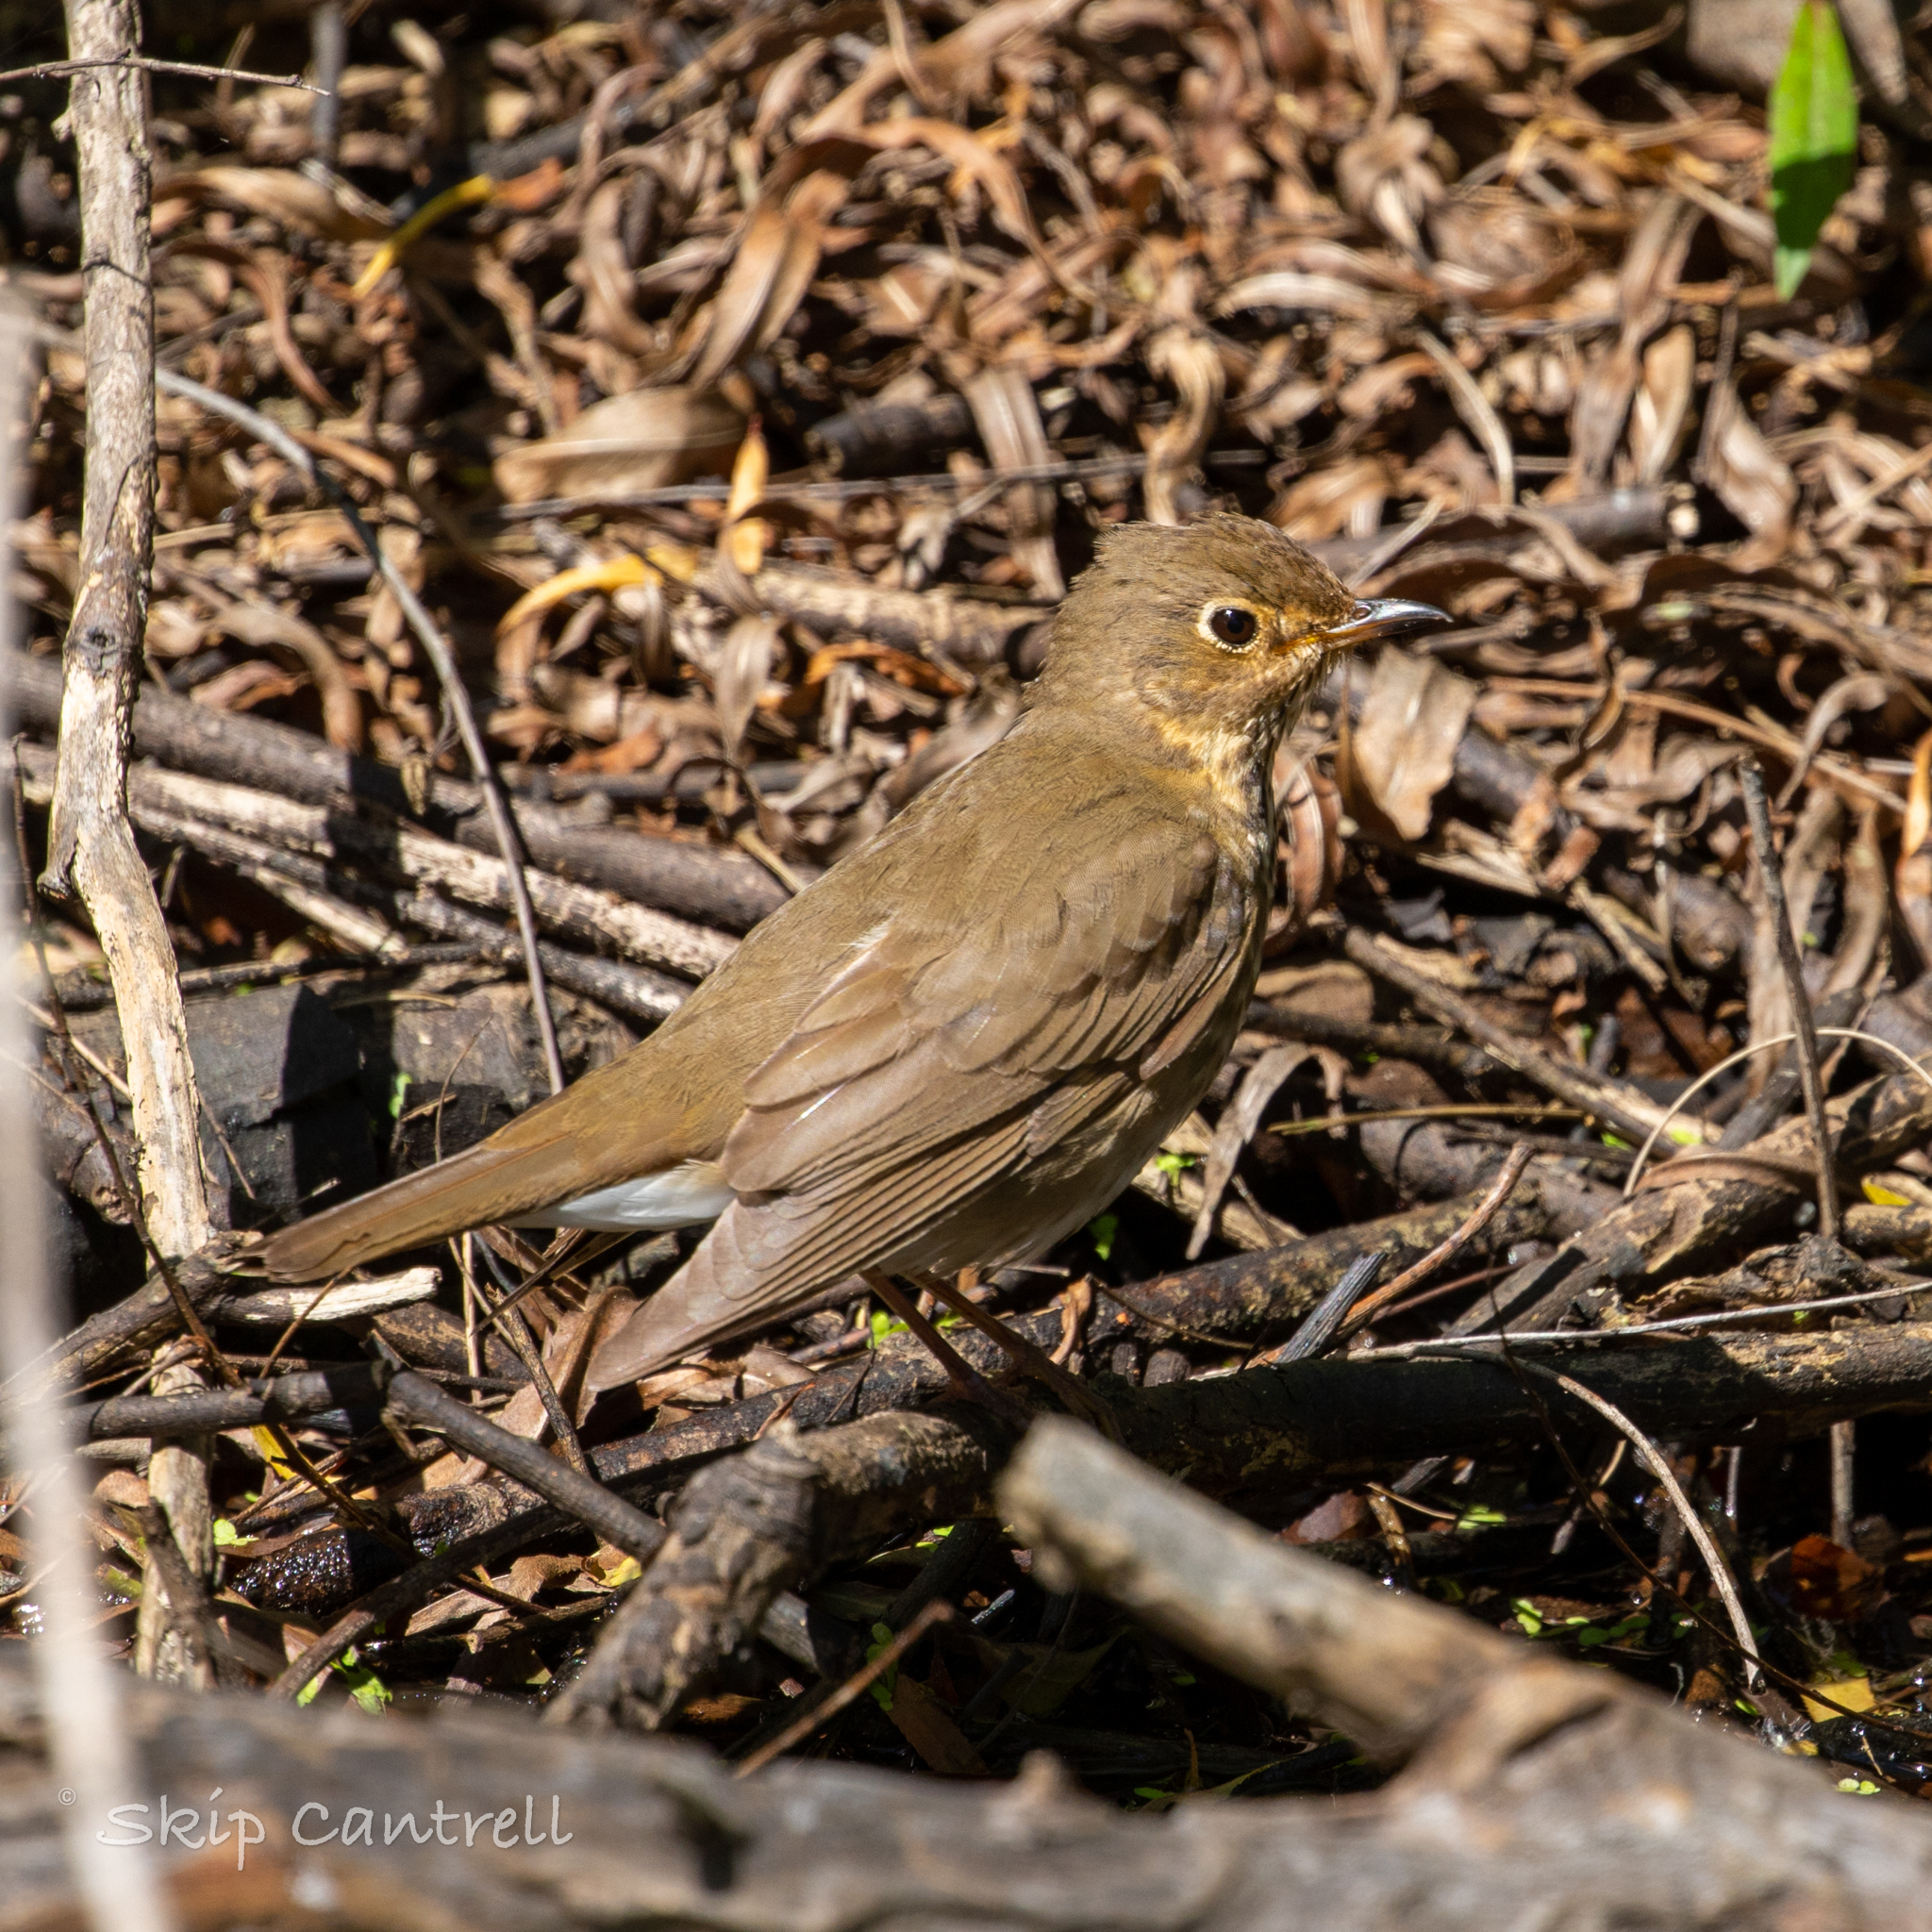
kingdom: Animalia
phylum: Chordata
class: Aves
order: Passeriformes
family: Turdidae
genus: Catharus
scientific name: Catharus ustulatus
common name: Swainson's thrush
